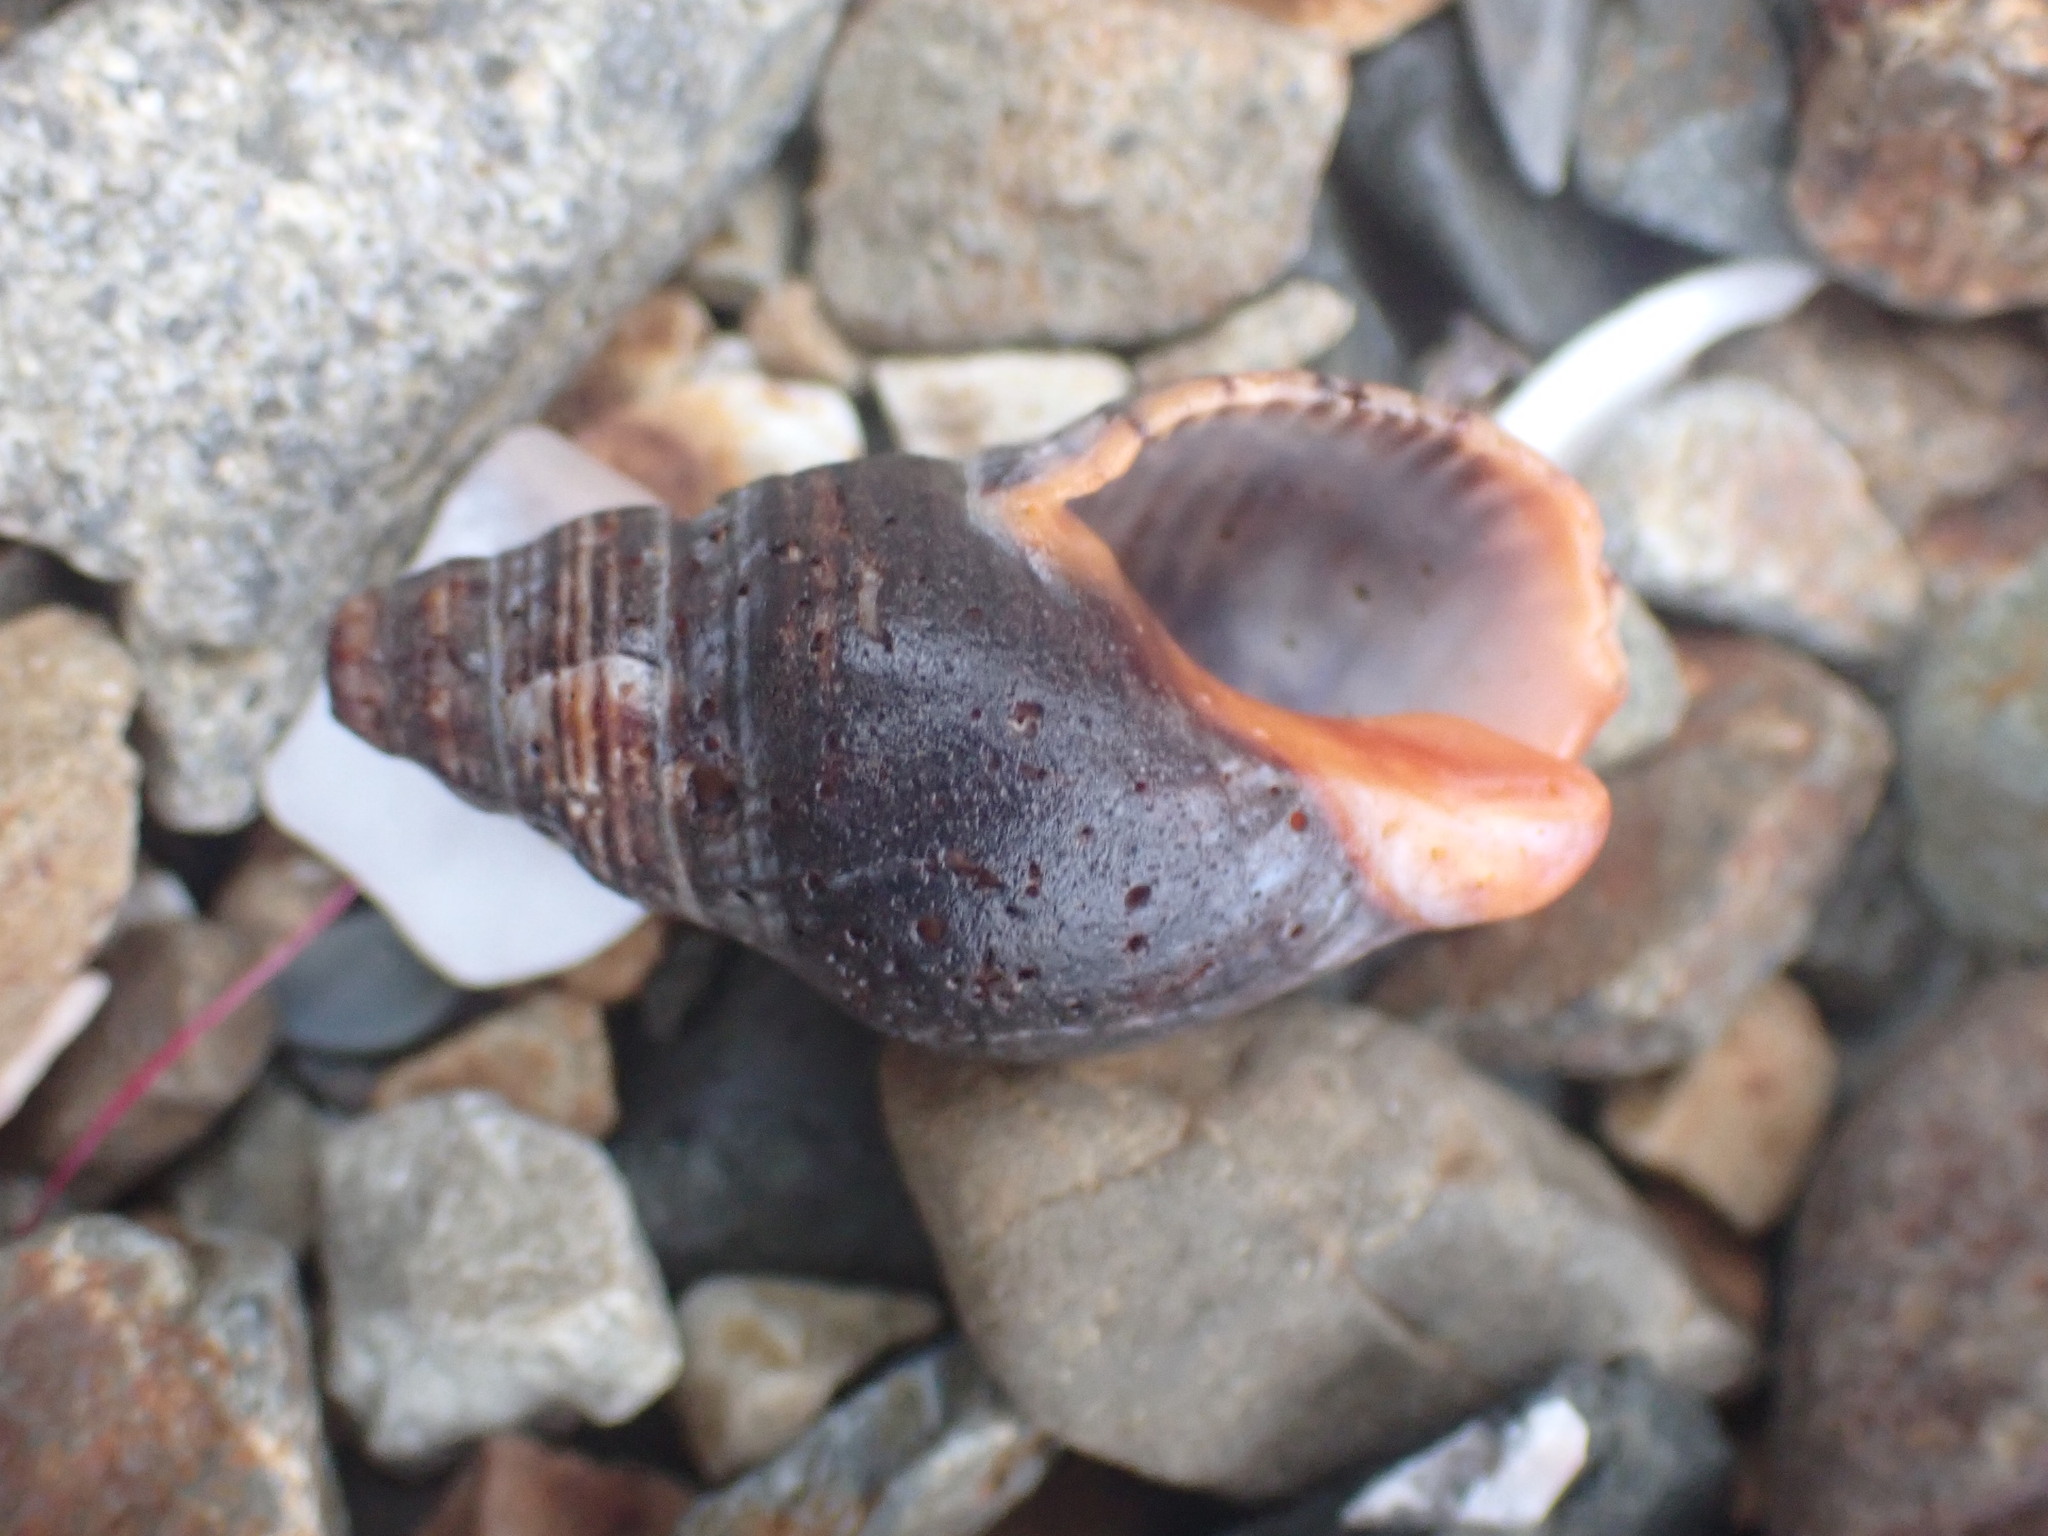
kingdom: Animalia
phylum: Mollusca
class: Gastropoda
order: Neogastropoda
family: Cominellidae
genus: Cominella
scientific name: Cominella virgata
